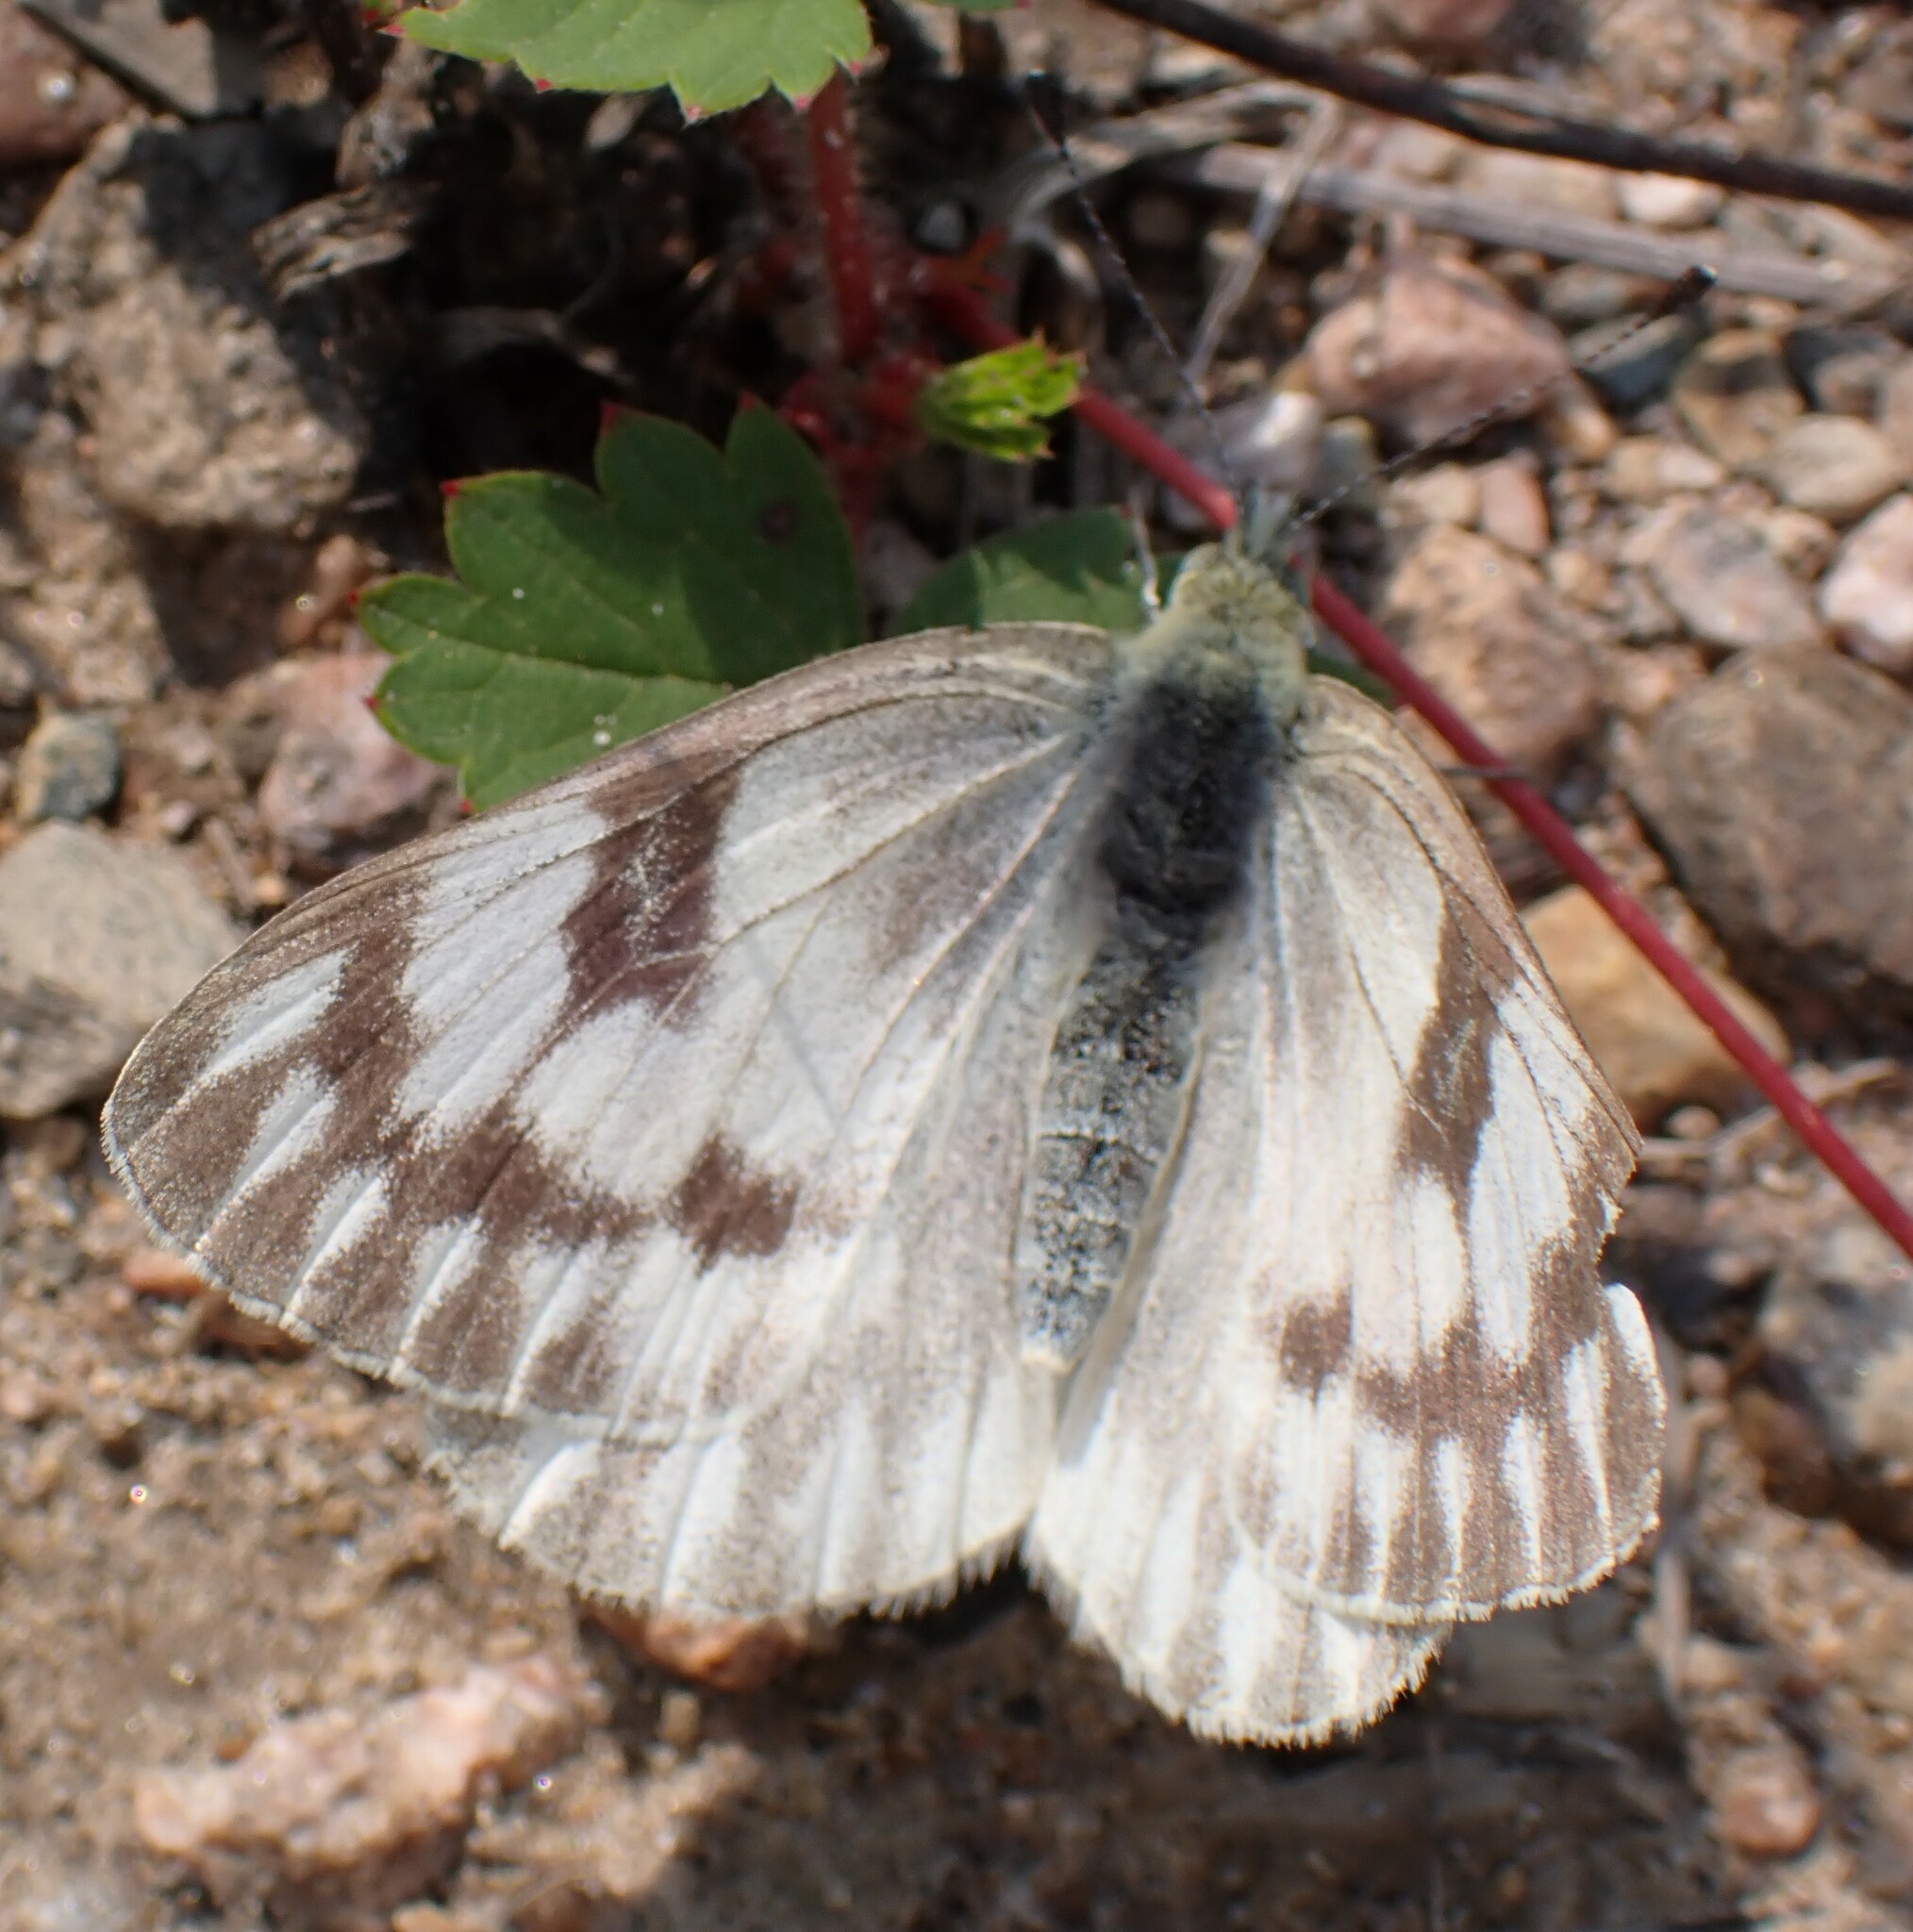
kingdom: Animalia
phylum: Arthropoda
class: Insecta
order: Lepidoptera
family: Pieridae
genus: Pontia
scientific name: Pontia occidentalis
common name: Western white
